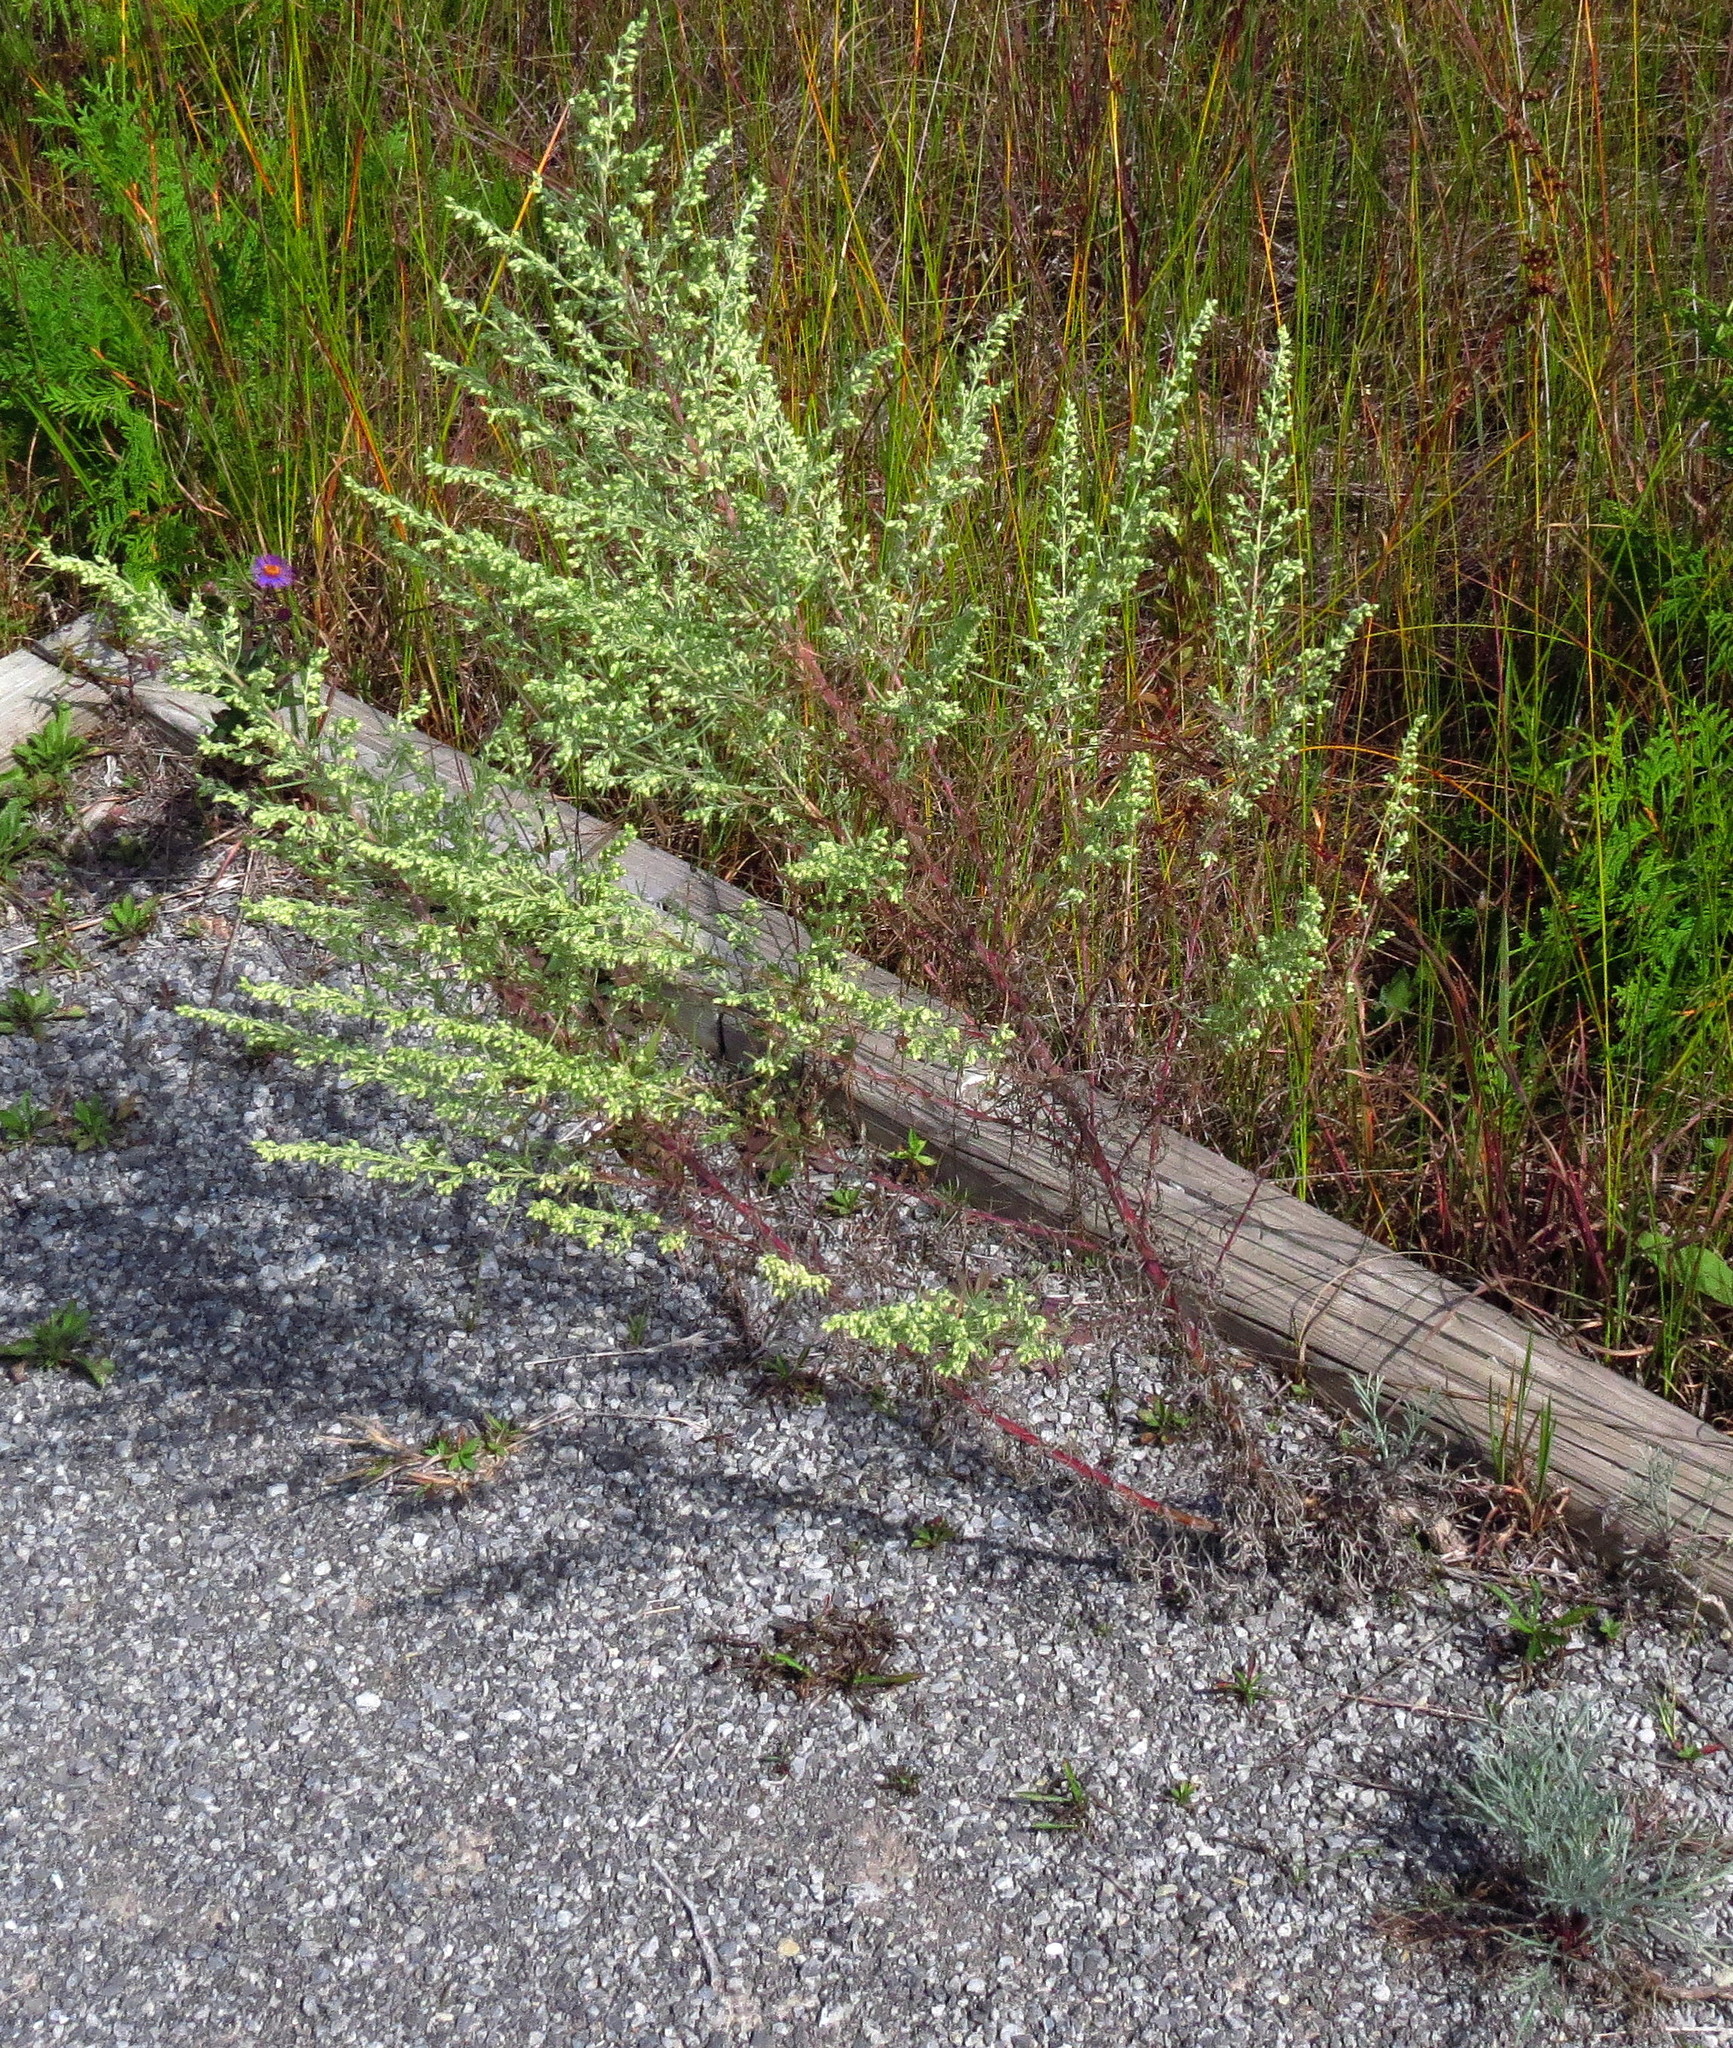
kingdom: Plantae
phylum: Tracheophyta
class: Magnoliopsida
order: Asterales
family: Asteraceae
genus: Artemisia
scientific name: Artemisia campestris
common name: Field wormwood
